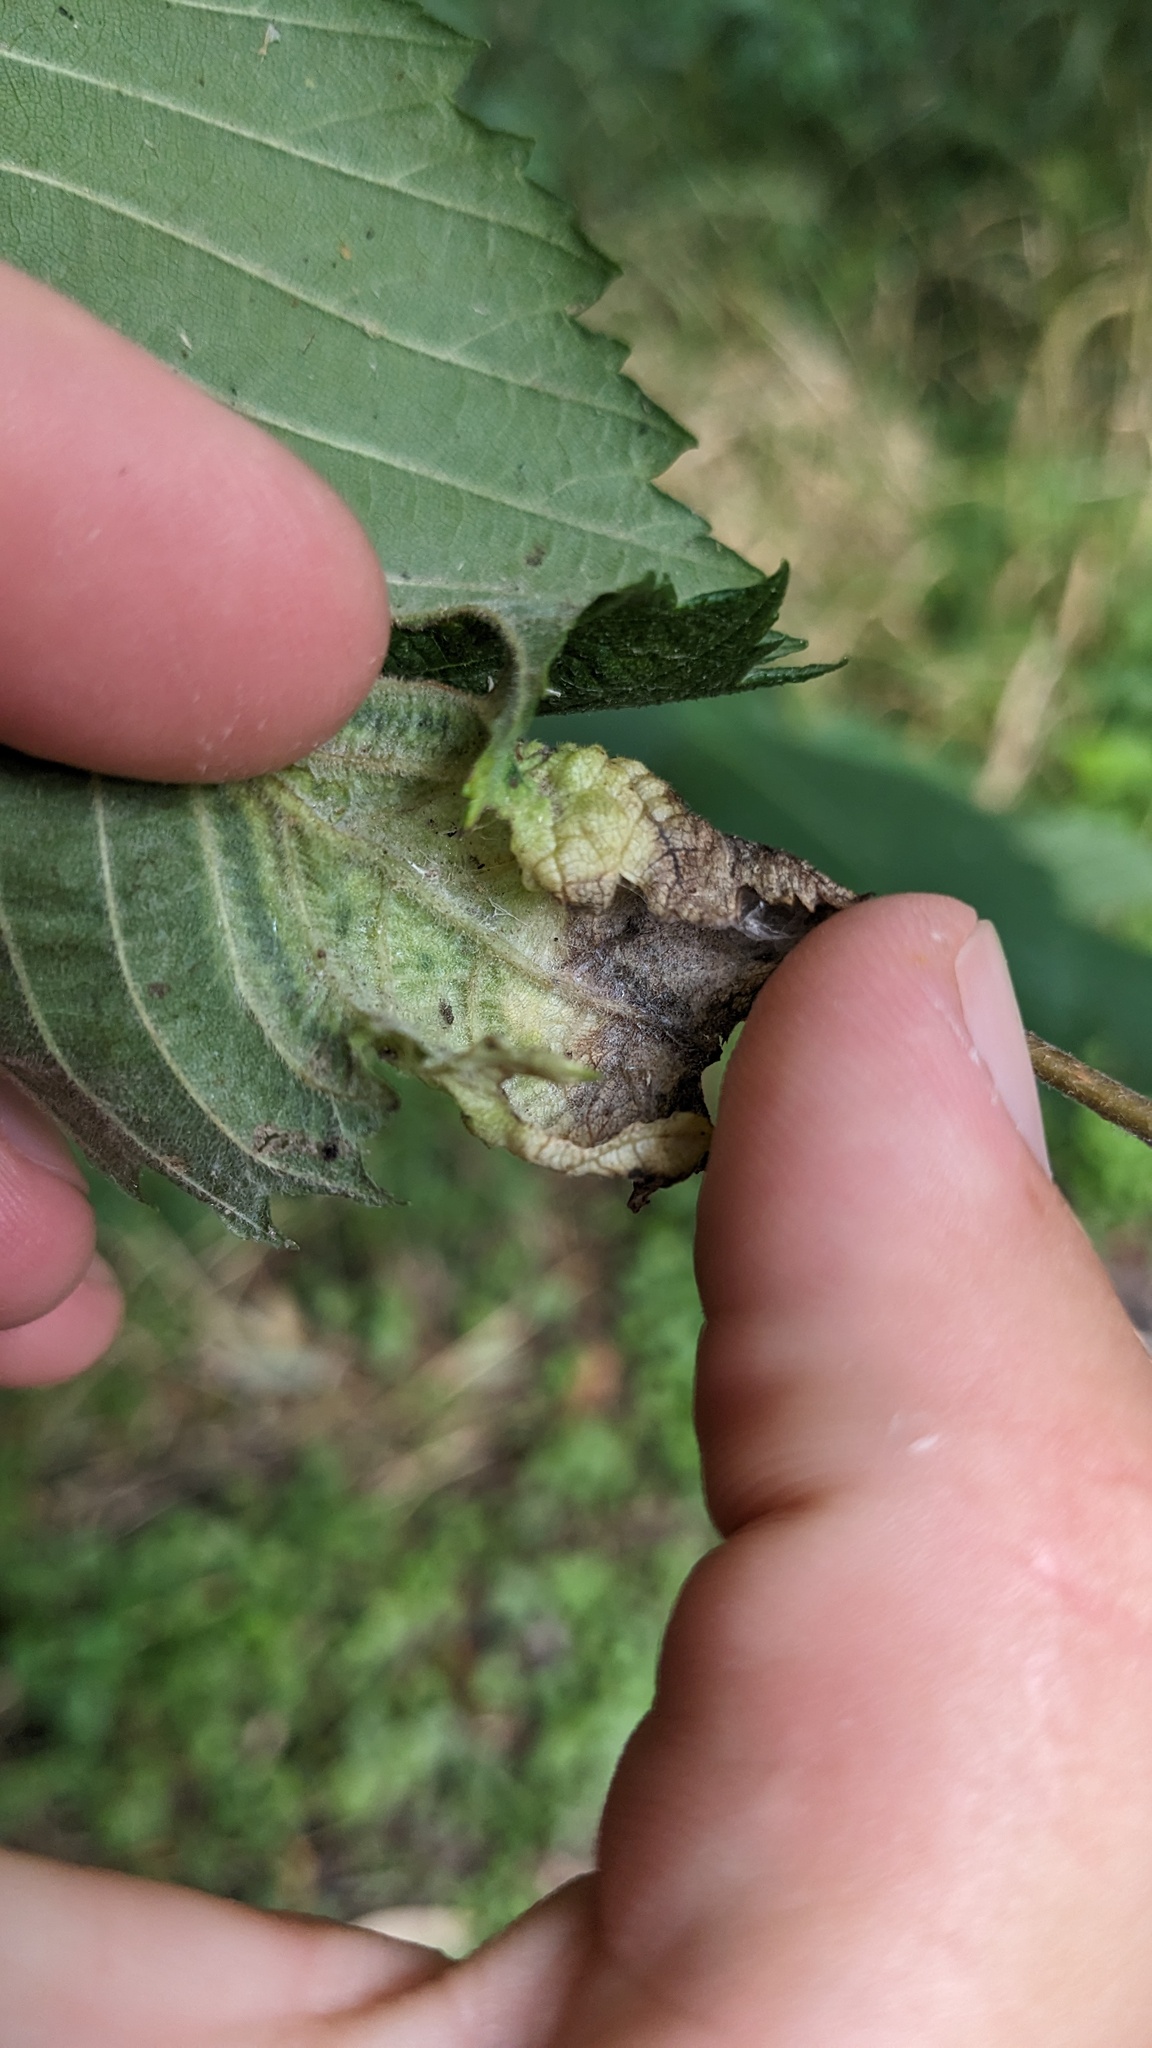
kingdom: Animalia
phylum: Arthropoda
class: Insecta
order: Hemiptera
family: Aphididae
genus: Eriosoma
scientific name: Eriosoma americanum
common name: Woolly elm aphid
